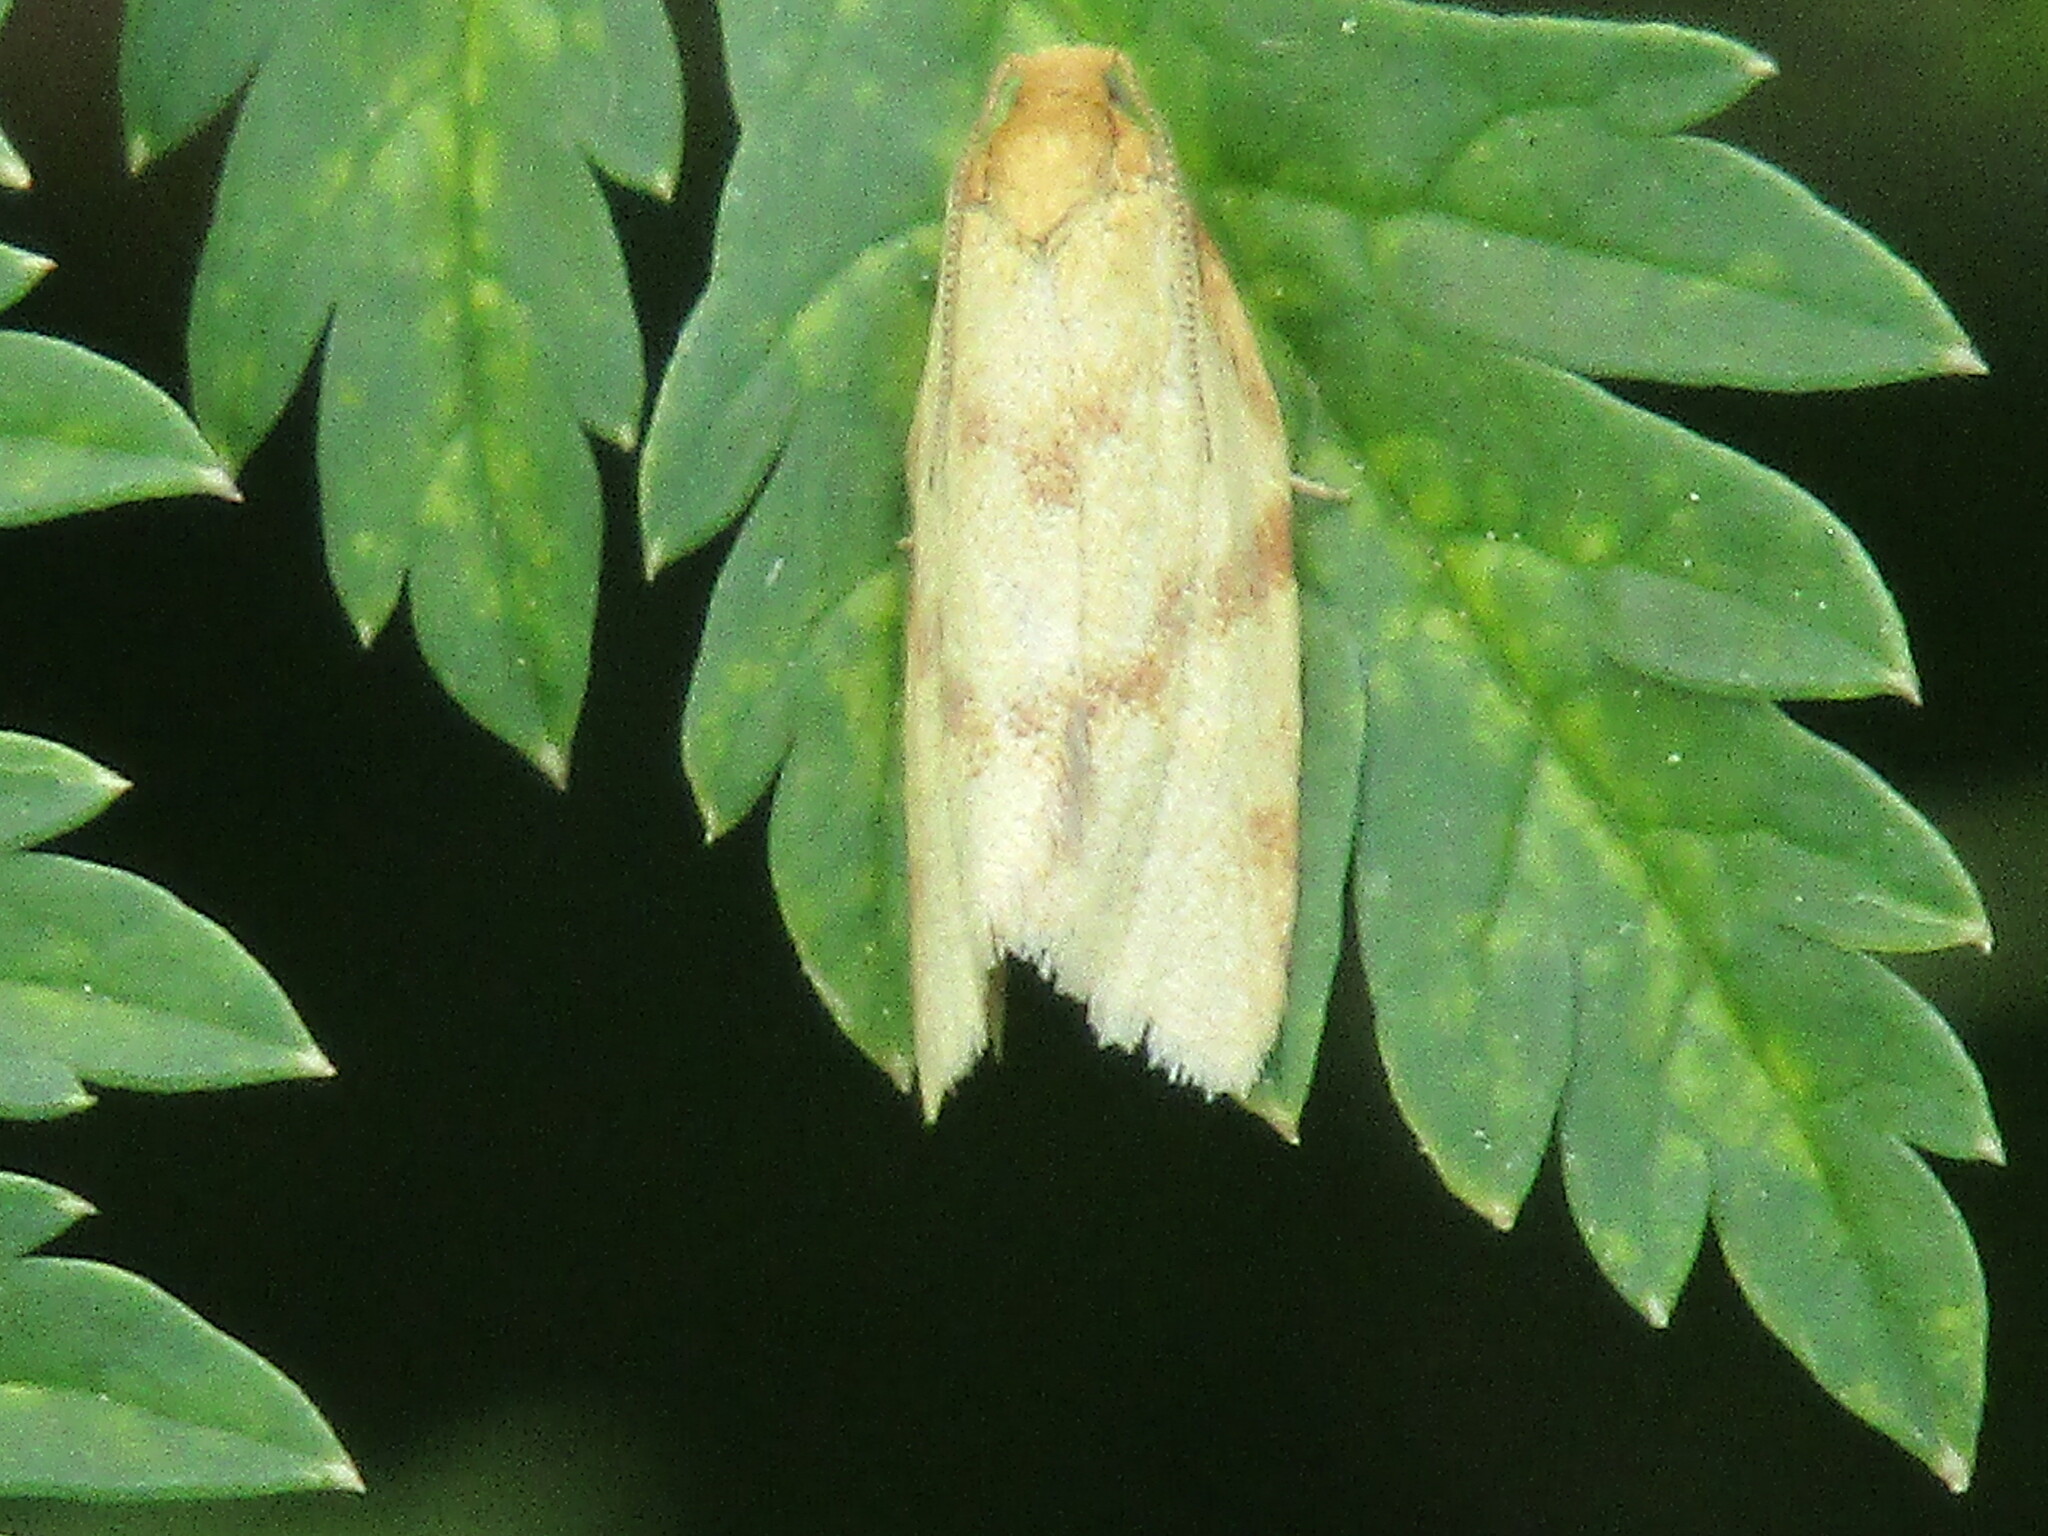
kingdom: Animalia
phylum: Arthropoda
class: Insecta
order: Lepidoptera
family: Tortricidae
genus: Clepsis
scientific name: Clepsis pallidana
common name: Sheep's-bit conch
